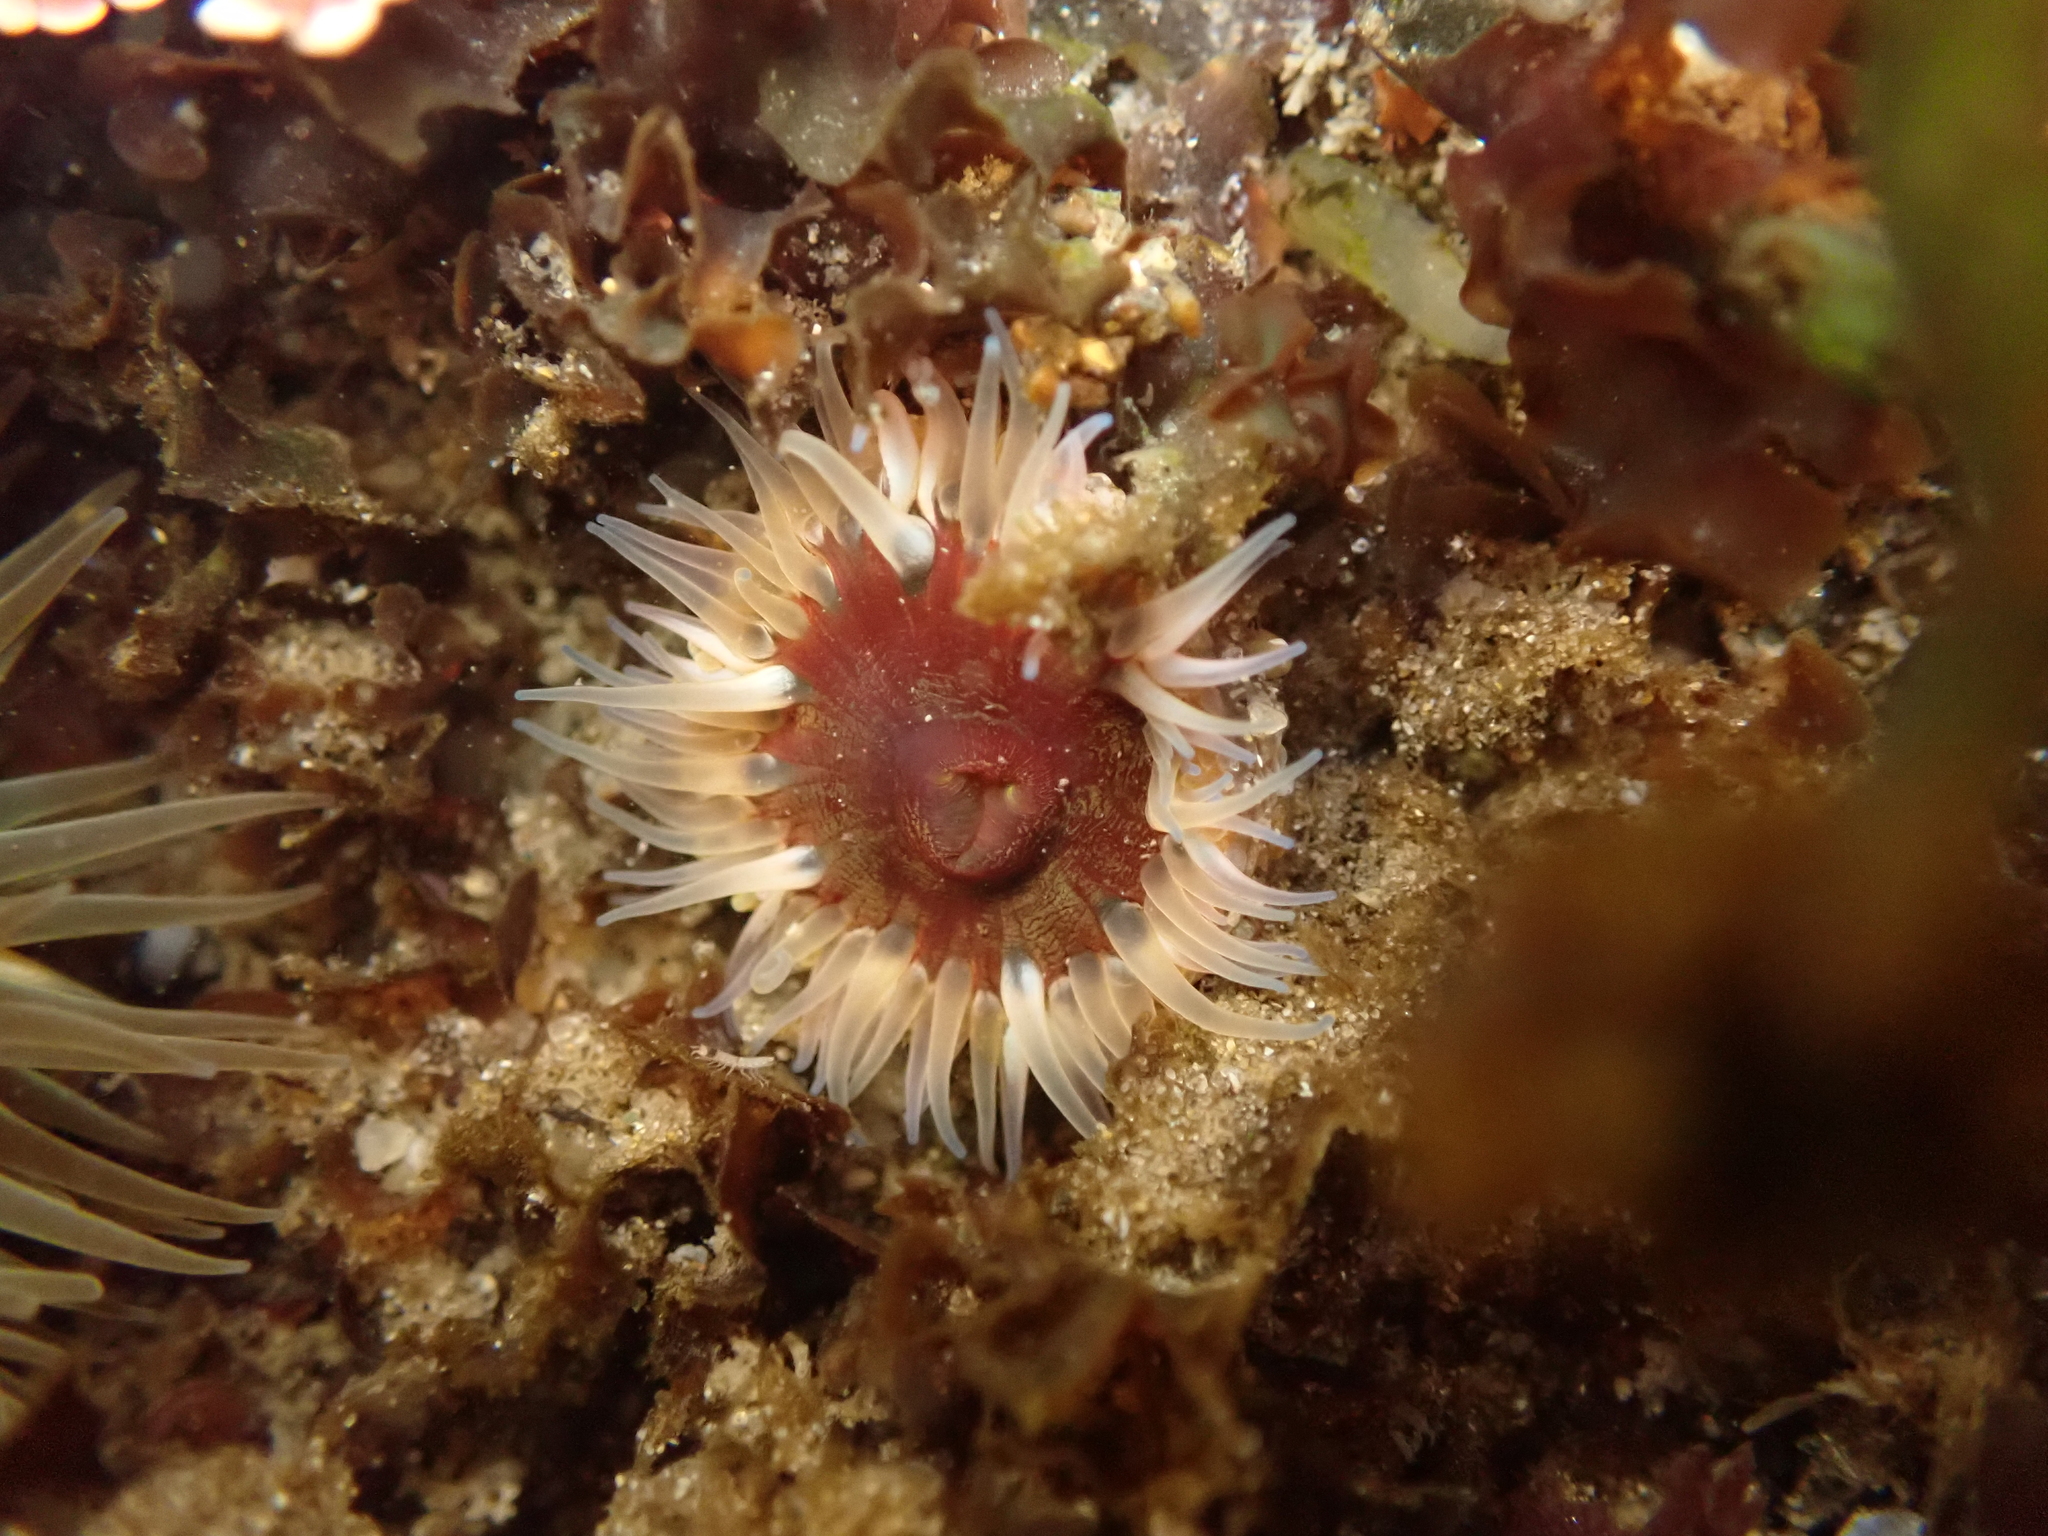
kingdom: Animalia
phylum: Cnidaria
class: Anthozoa
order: Actiniaria
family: Actiniidae
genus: Anthopleura
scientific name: Anthopleura artemisia
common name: Buried sea anemone
